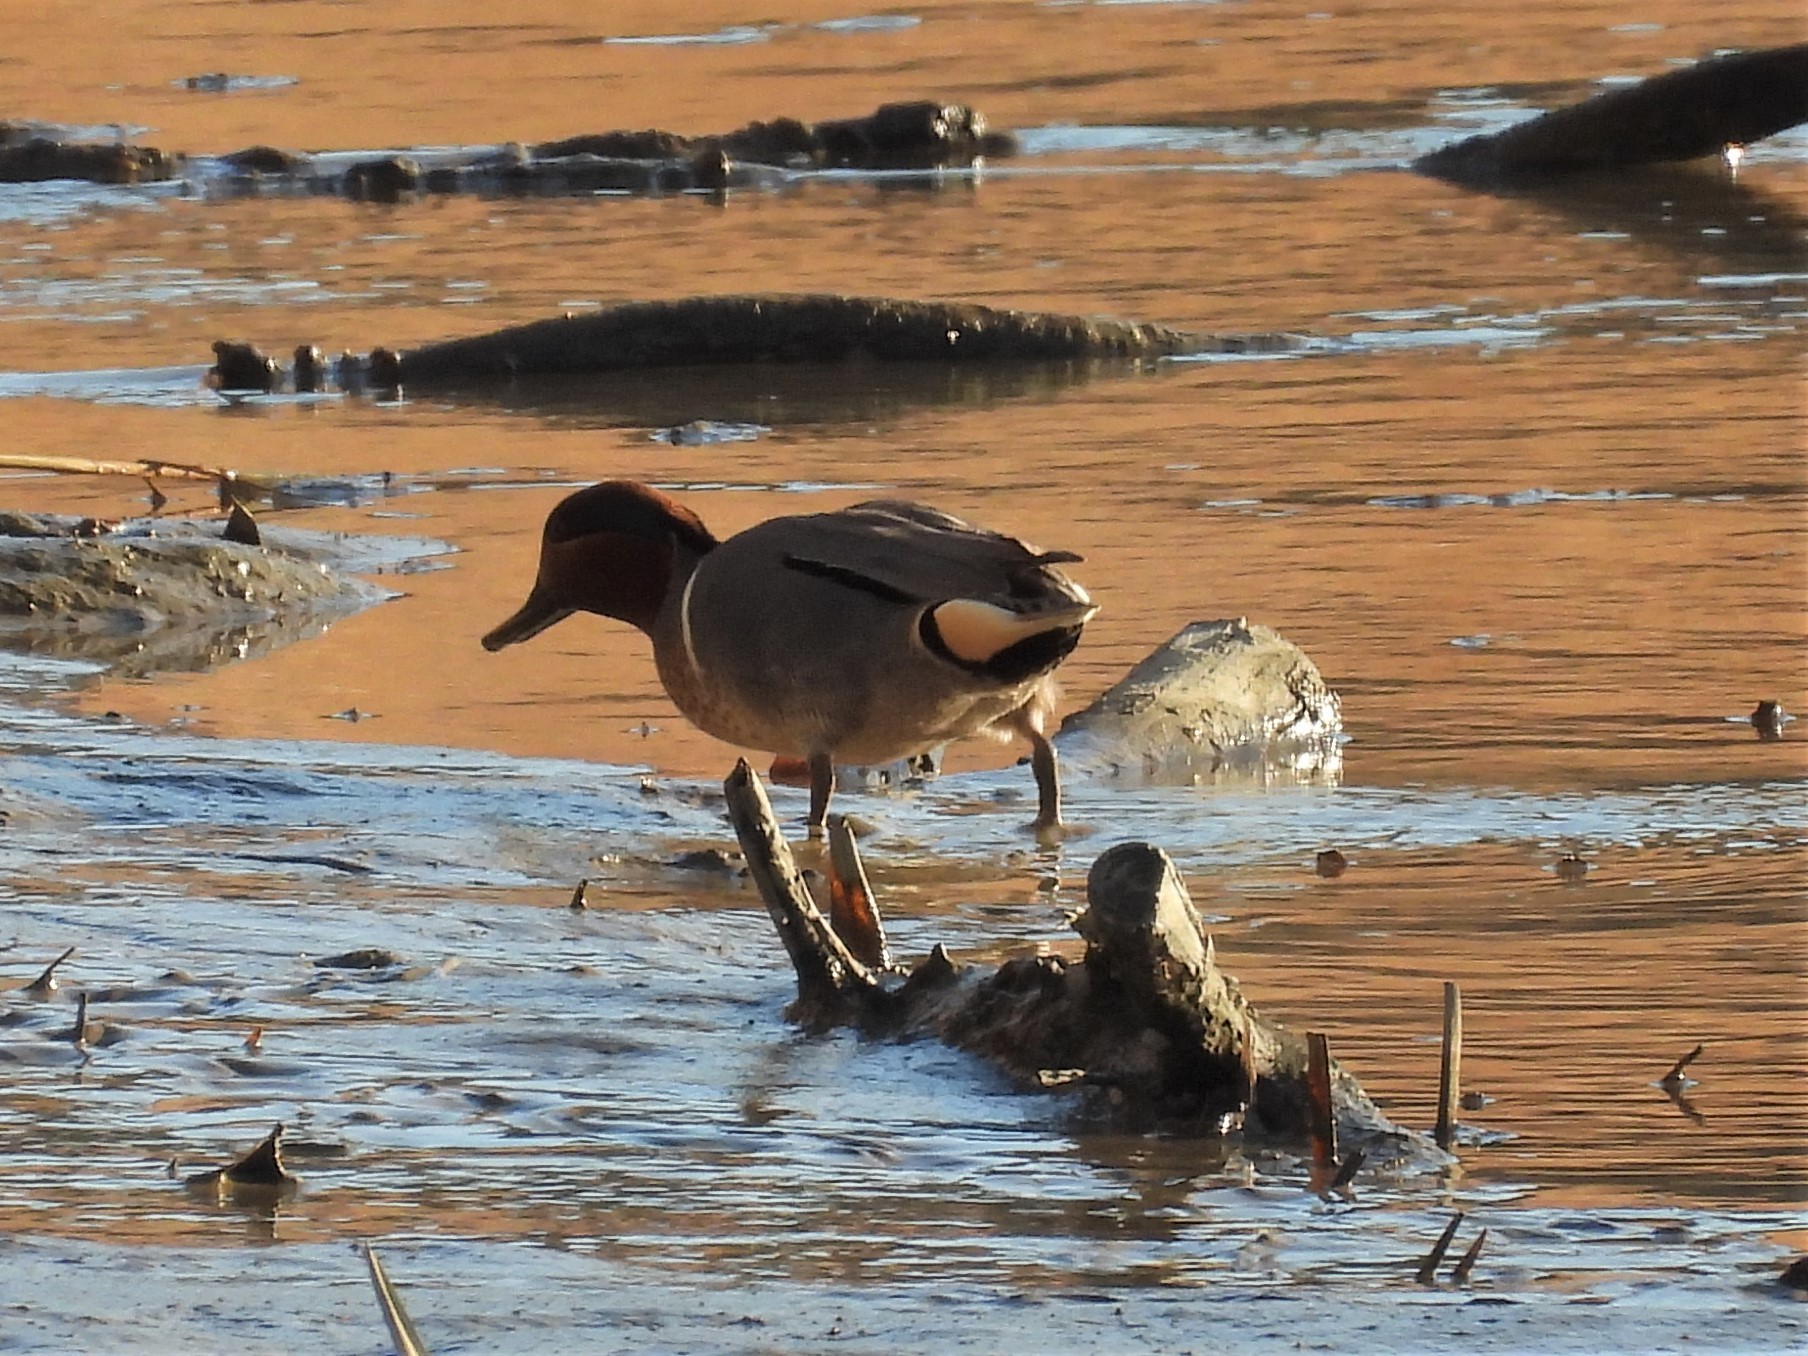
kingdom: Animalia
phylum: Chordata
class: Aves
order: Anseriformes
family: Anatidae
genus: Anas
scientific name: Anas crecca
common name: Eurasian teal
